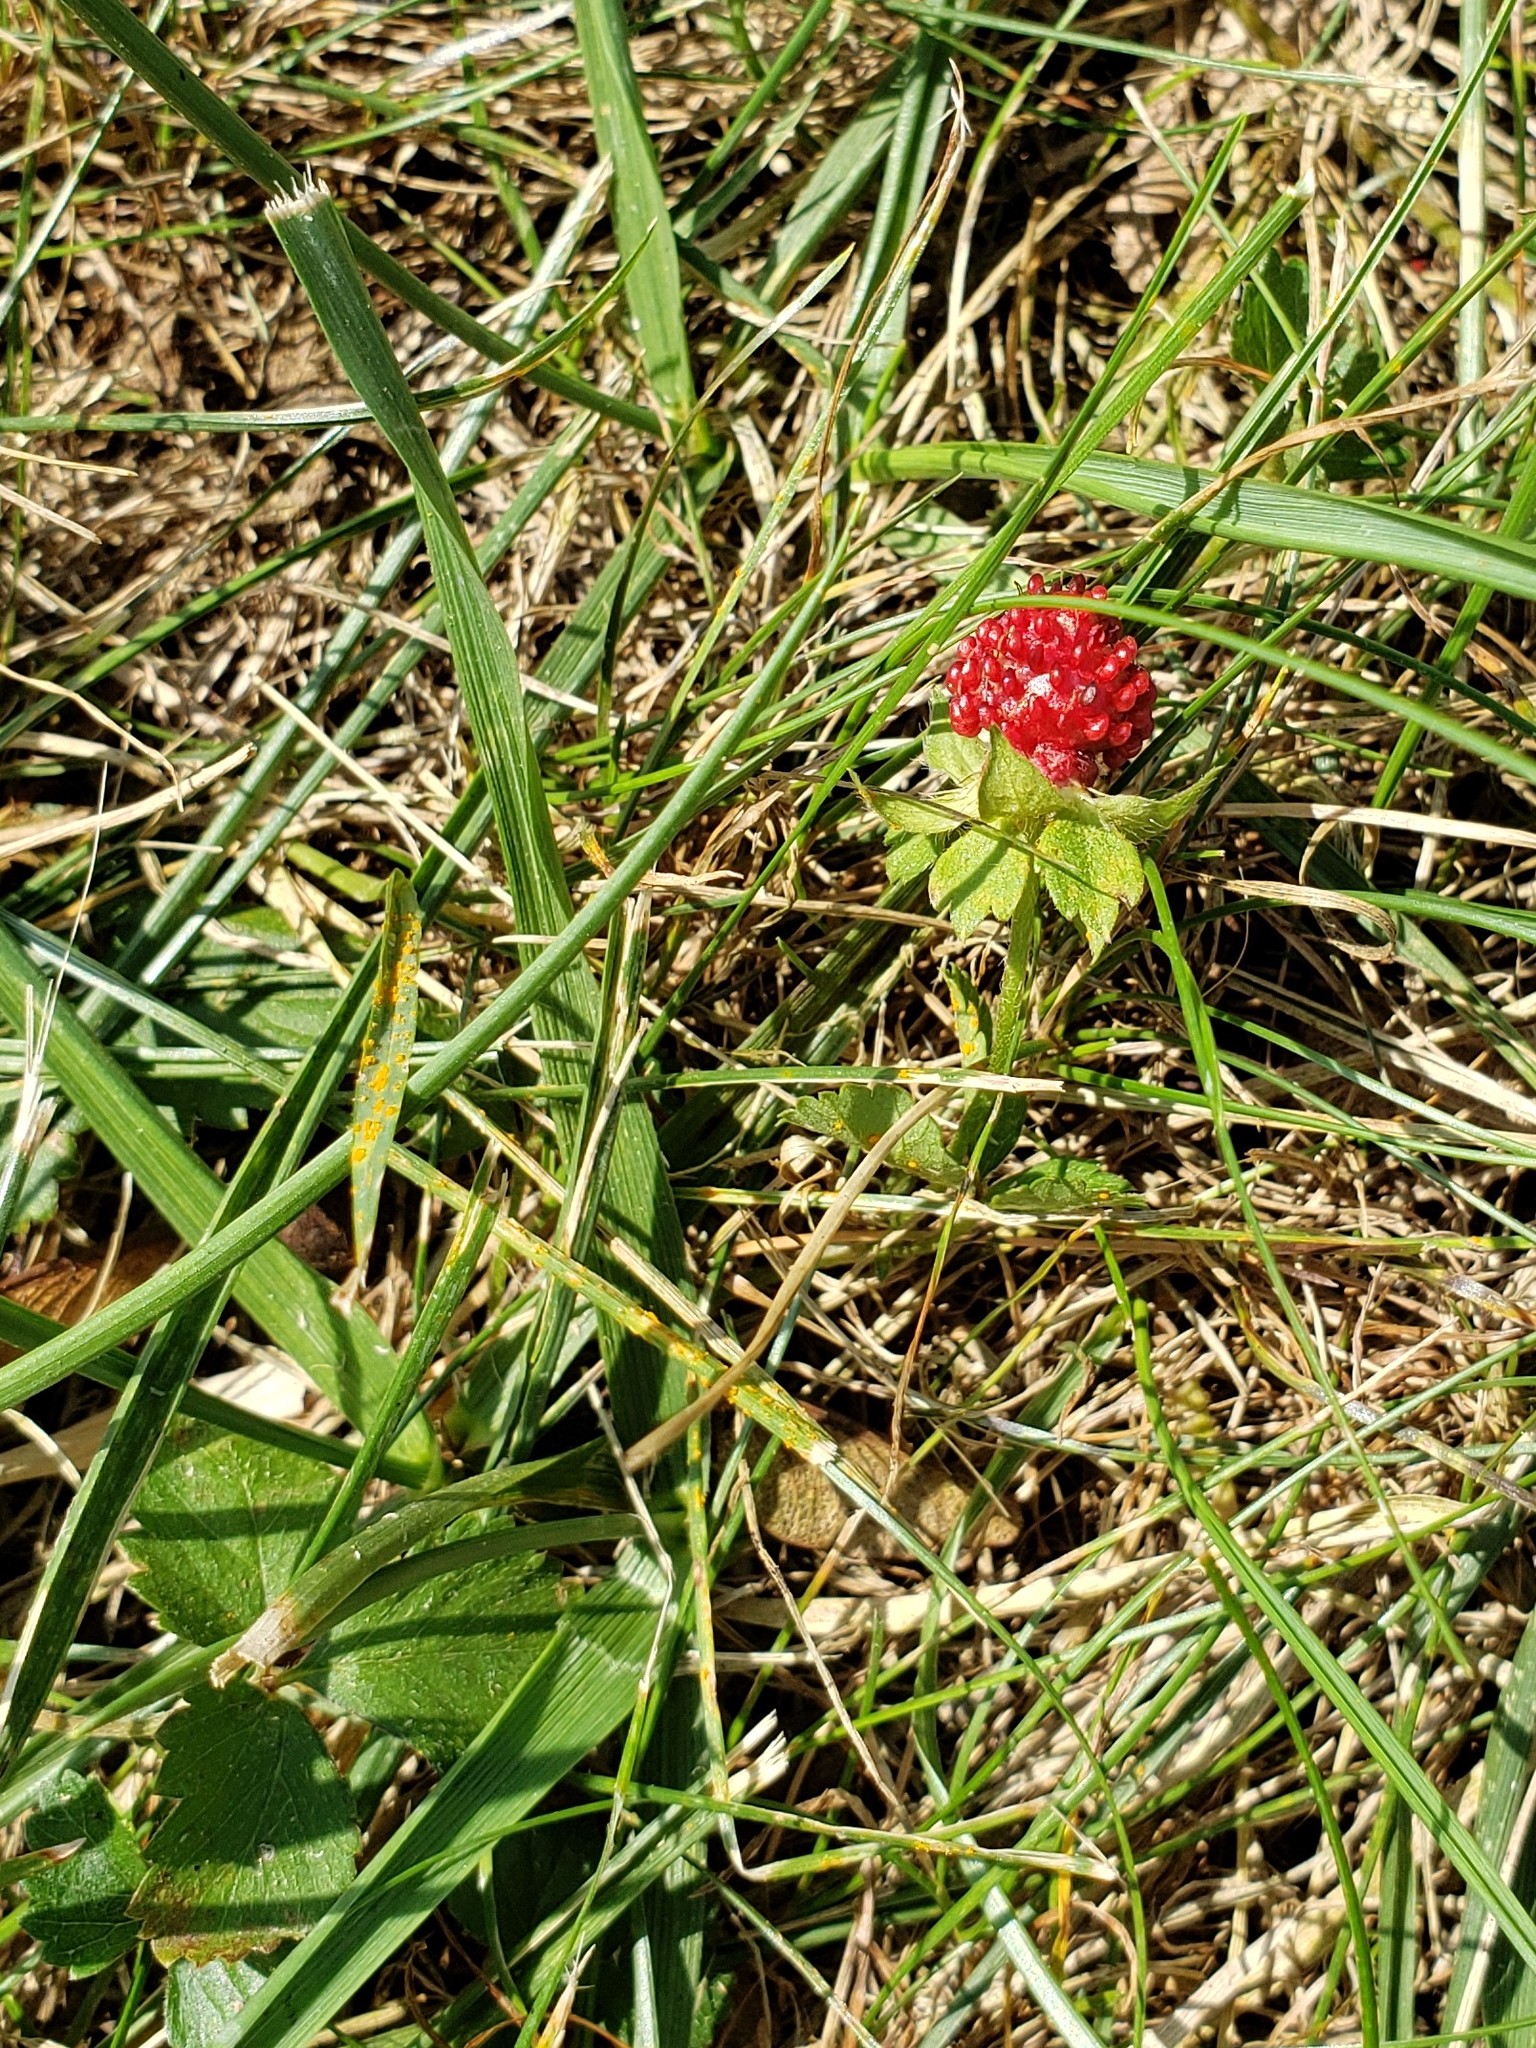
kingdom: Plantae
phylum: Tracheophyta
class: Magnoliopsida
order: Rosales
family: Rosaceae
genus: Potentilla
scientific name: Potentilla indica
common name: Yellow-flowered strawberry
